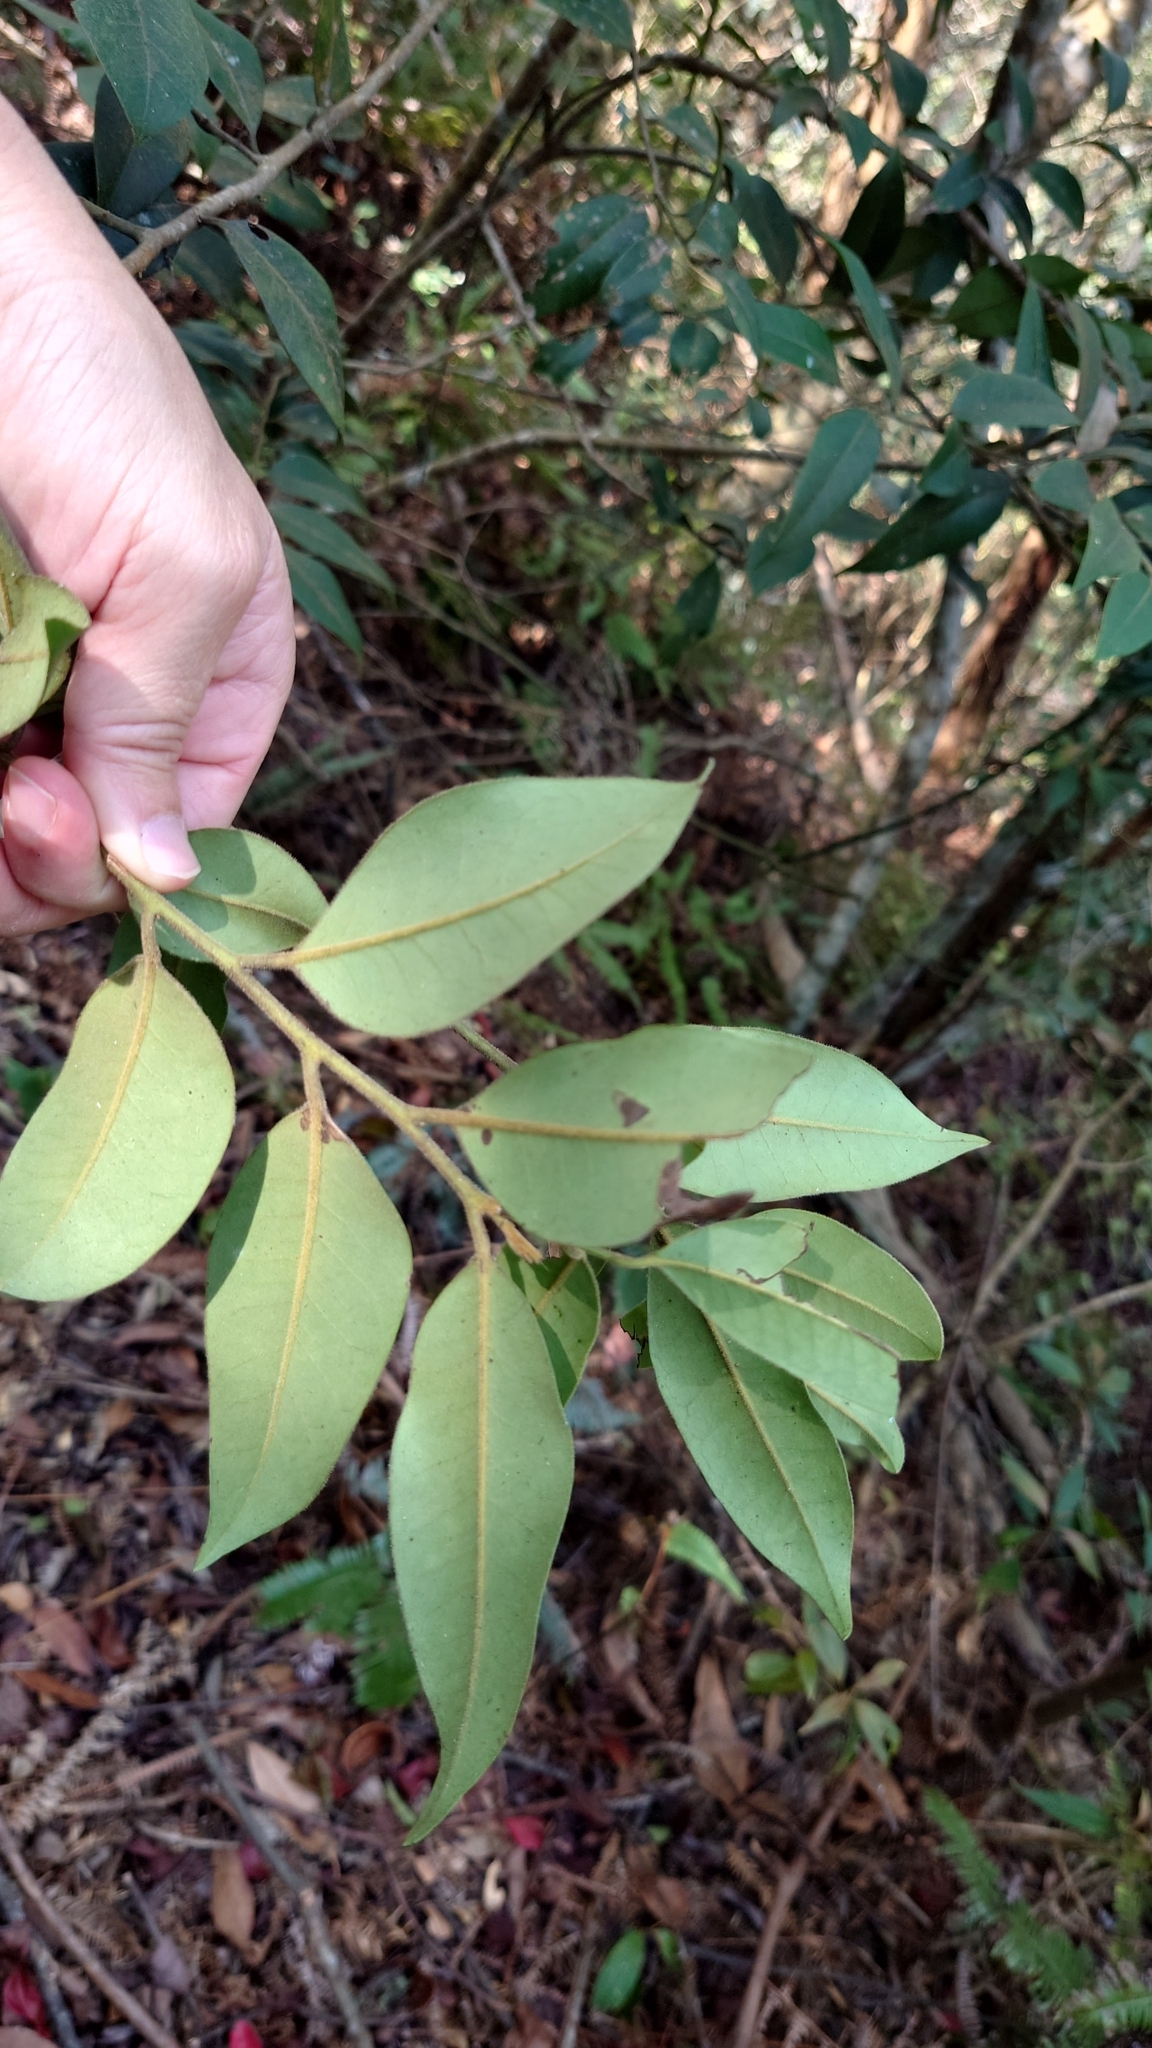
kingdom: Plantae
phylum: Tracheophyta
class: Magnoliopsida
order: Aquifoliales
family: Aquifoliaceae
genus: Ilex
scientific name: Ilex lonicerifolia
